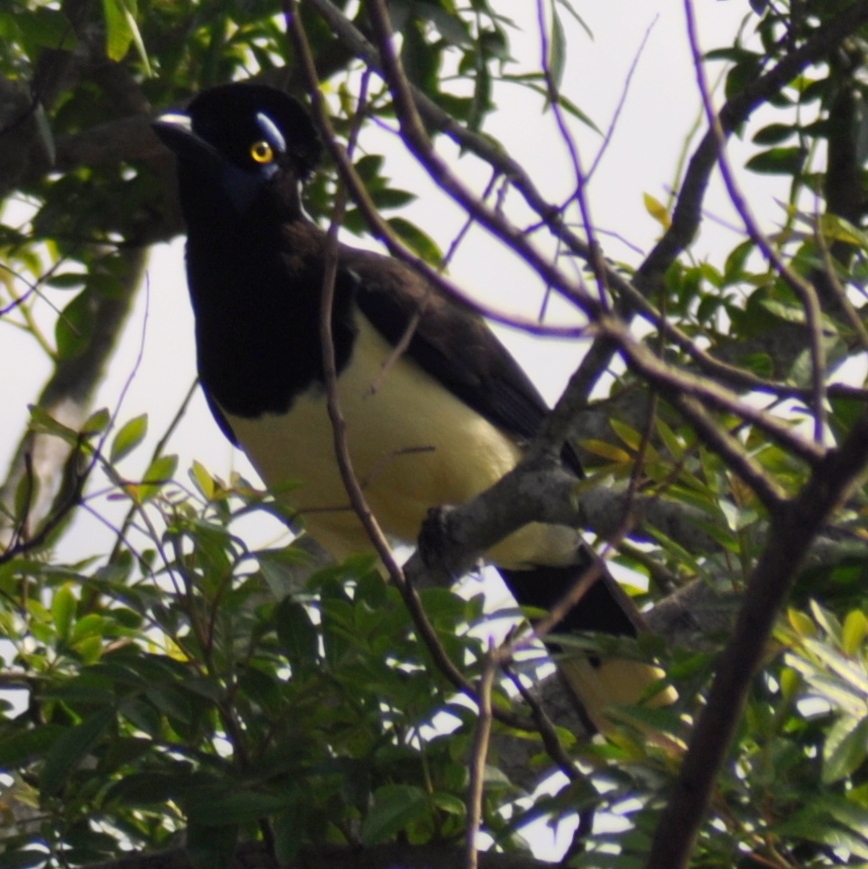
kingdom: Animalia
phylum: Chordata
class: Aves
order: Passeriformes
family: Corvidae
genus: Cyanocorax
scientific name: Cyanocorax chrysops
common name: Plush-crested jay
